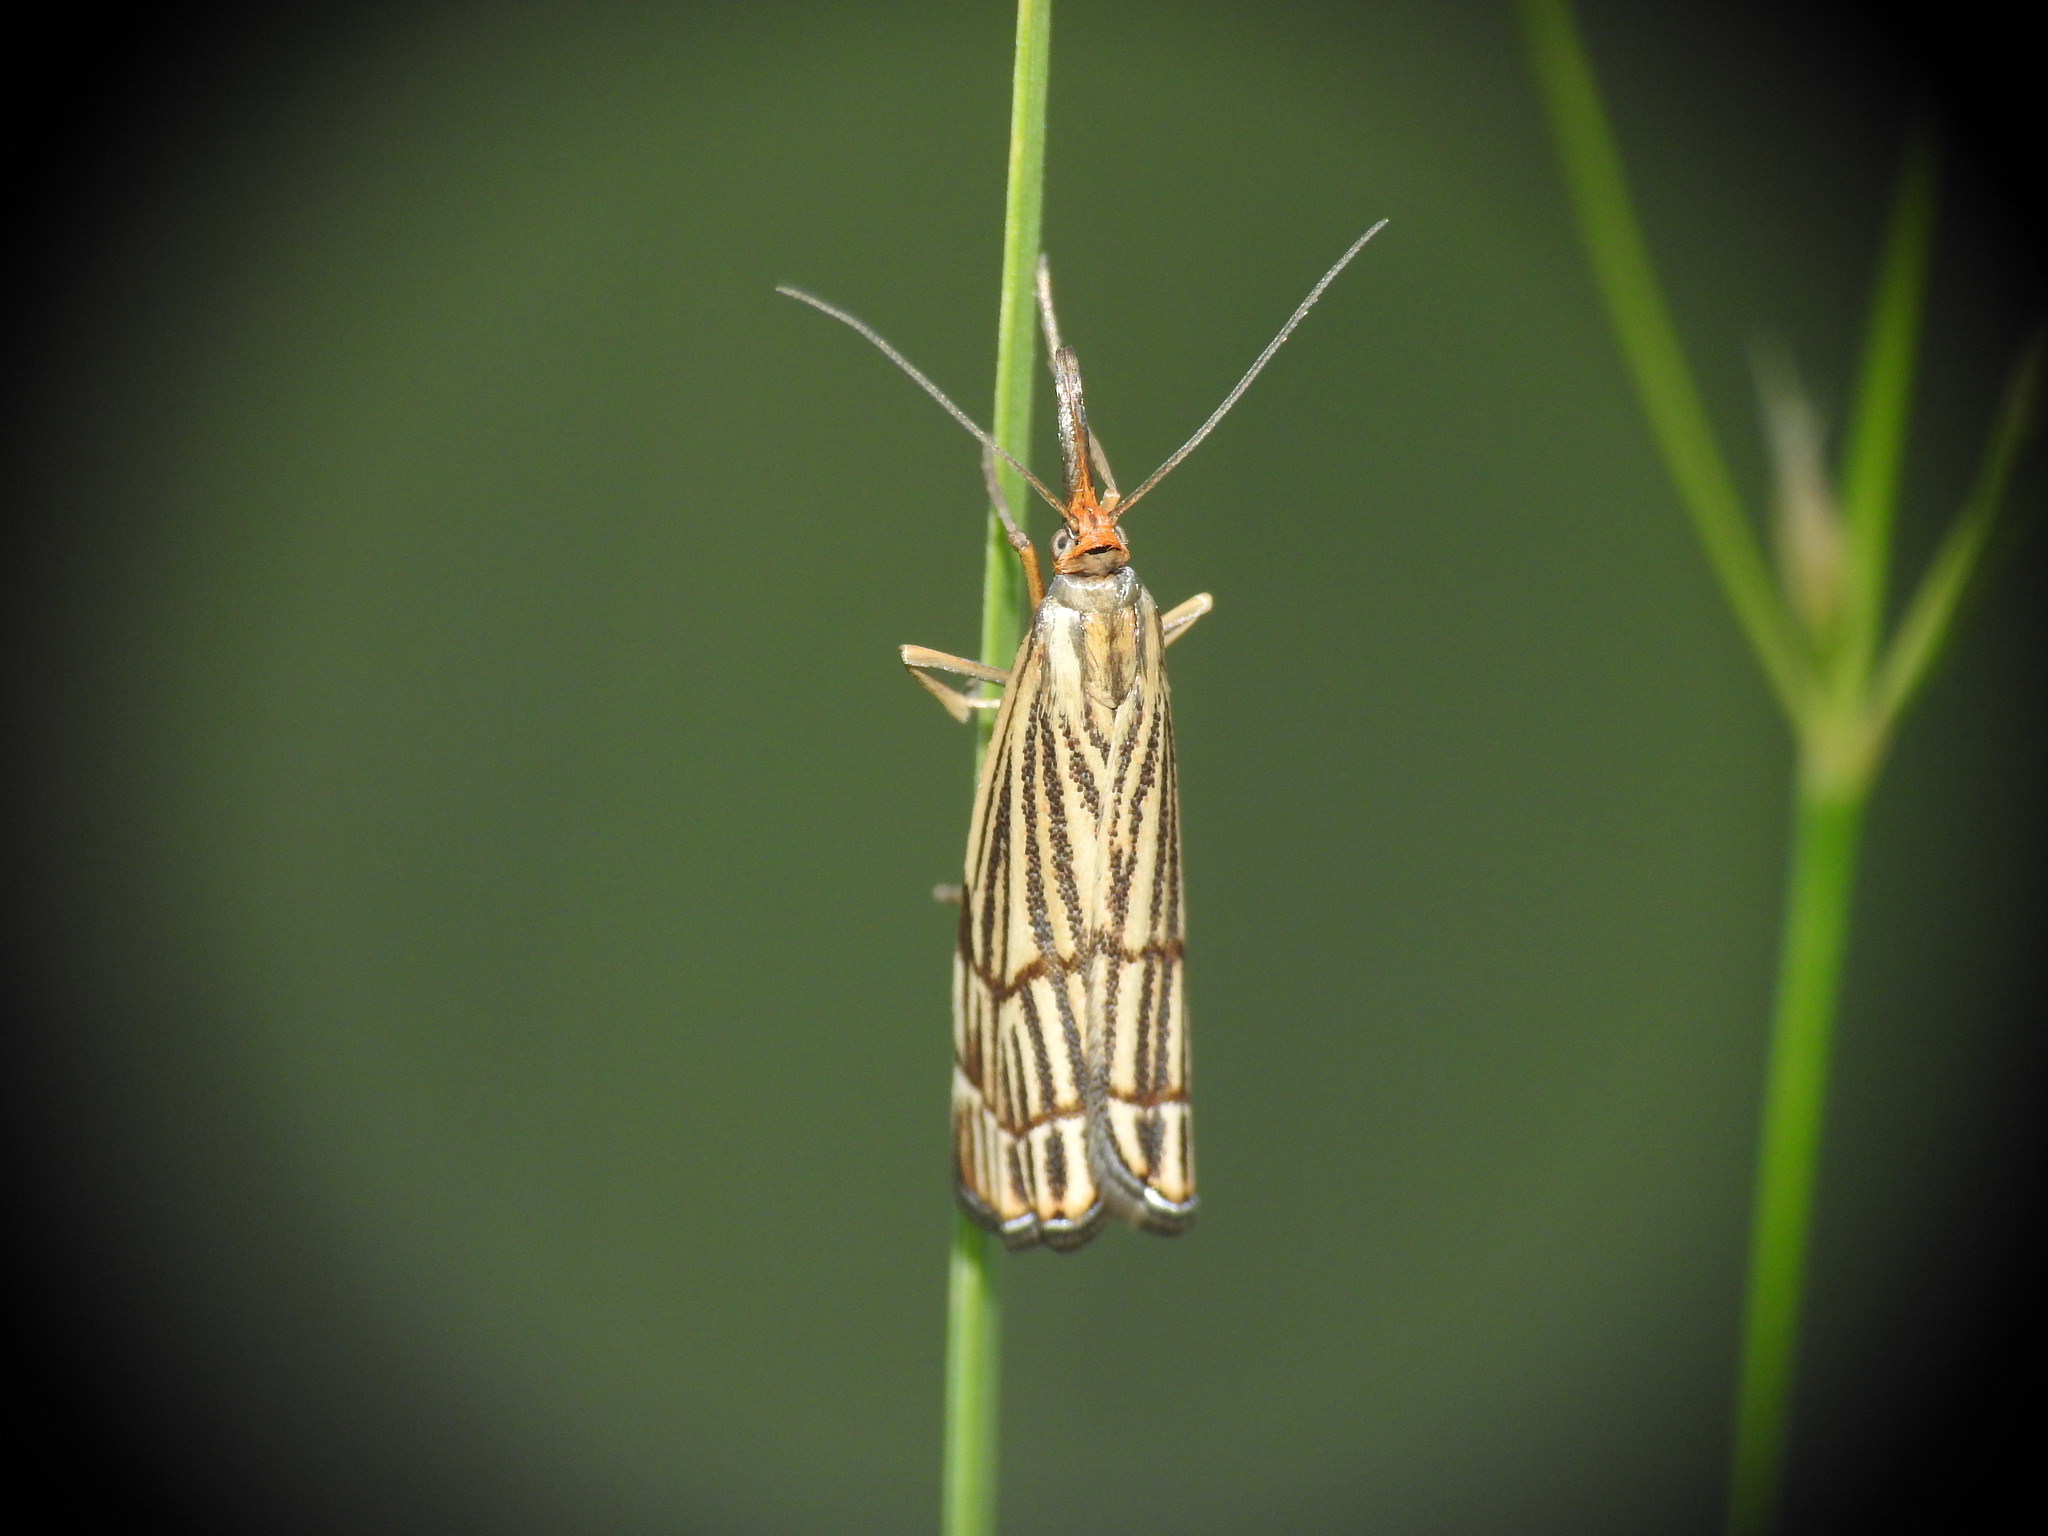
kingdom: Animalia
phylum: Arthropoda
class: Insecta
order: Lepidoptera
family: Crambidae
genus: Chrysocrambus
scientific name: Chrysocrambus Chrysocramboides craterellus
